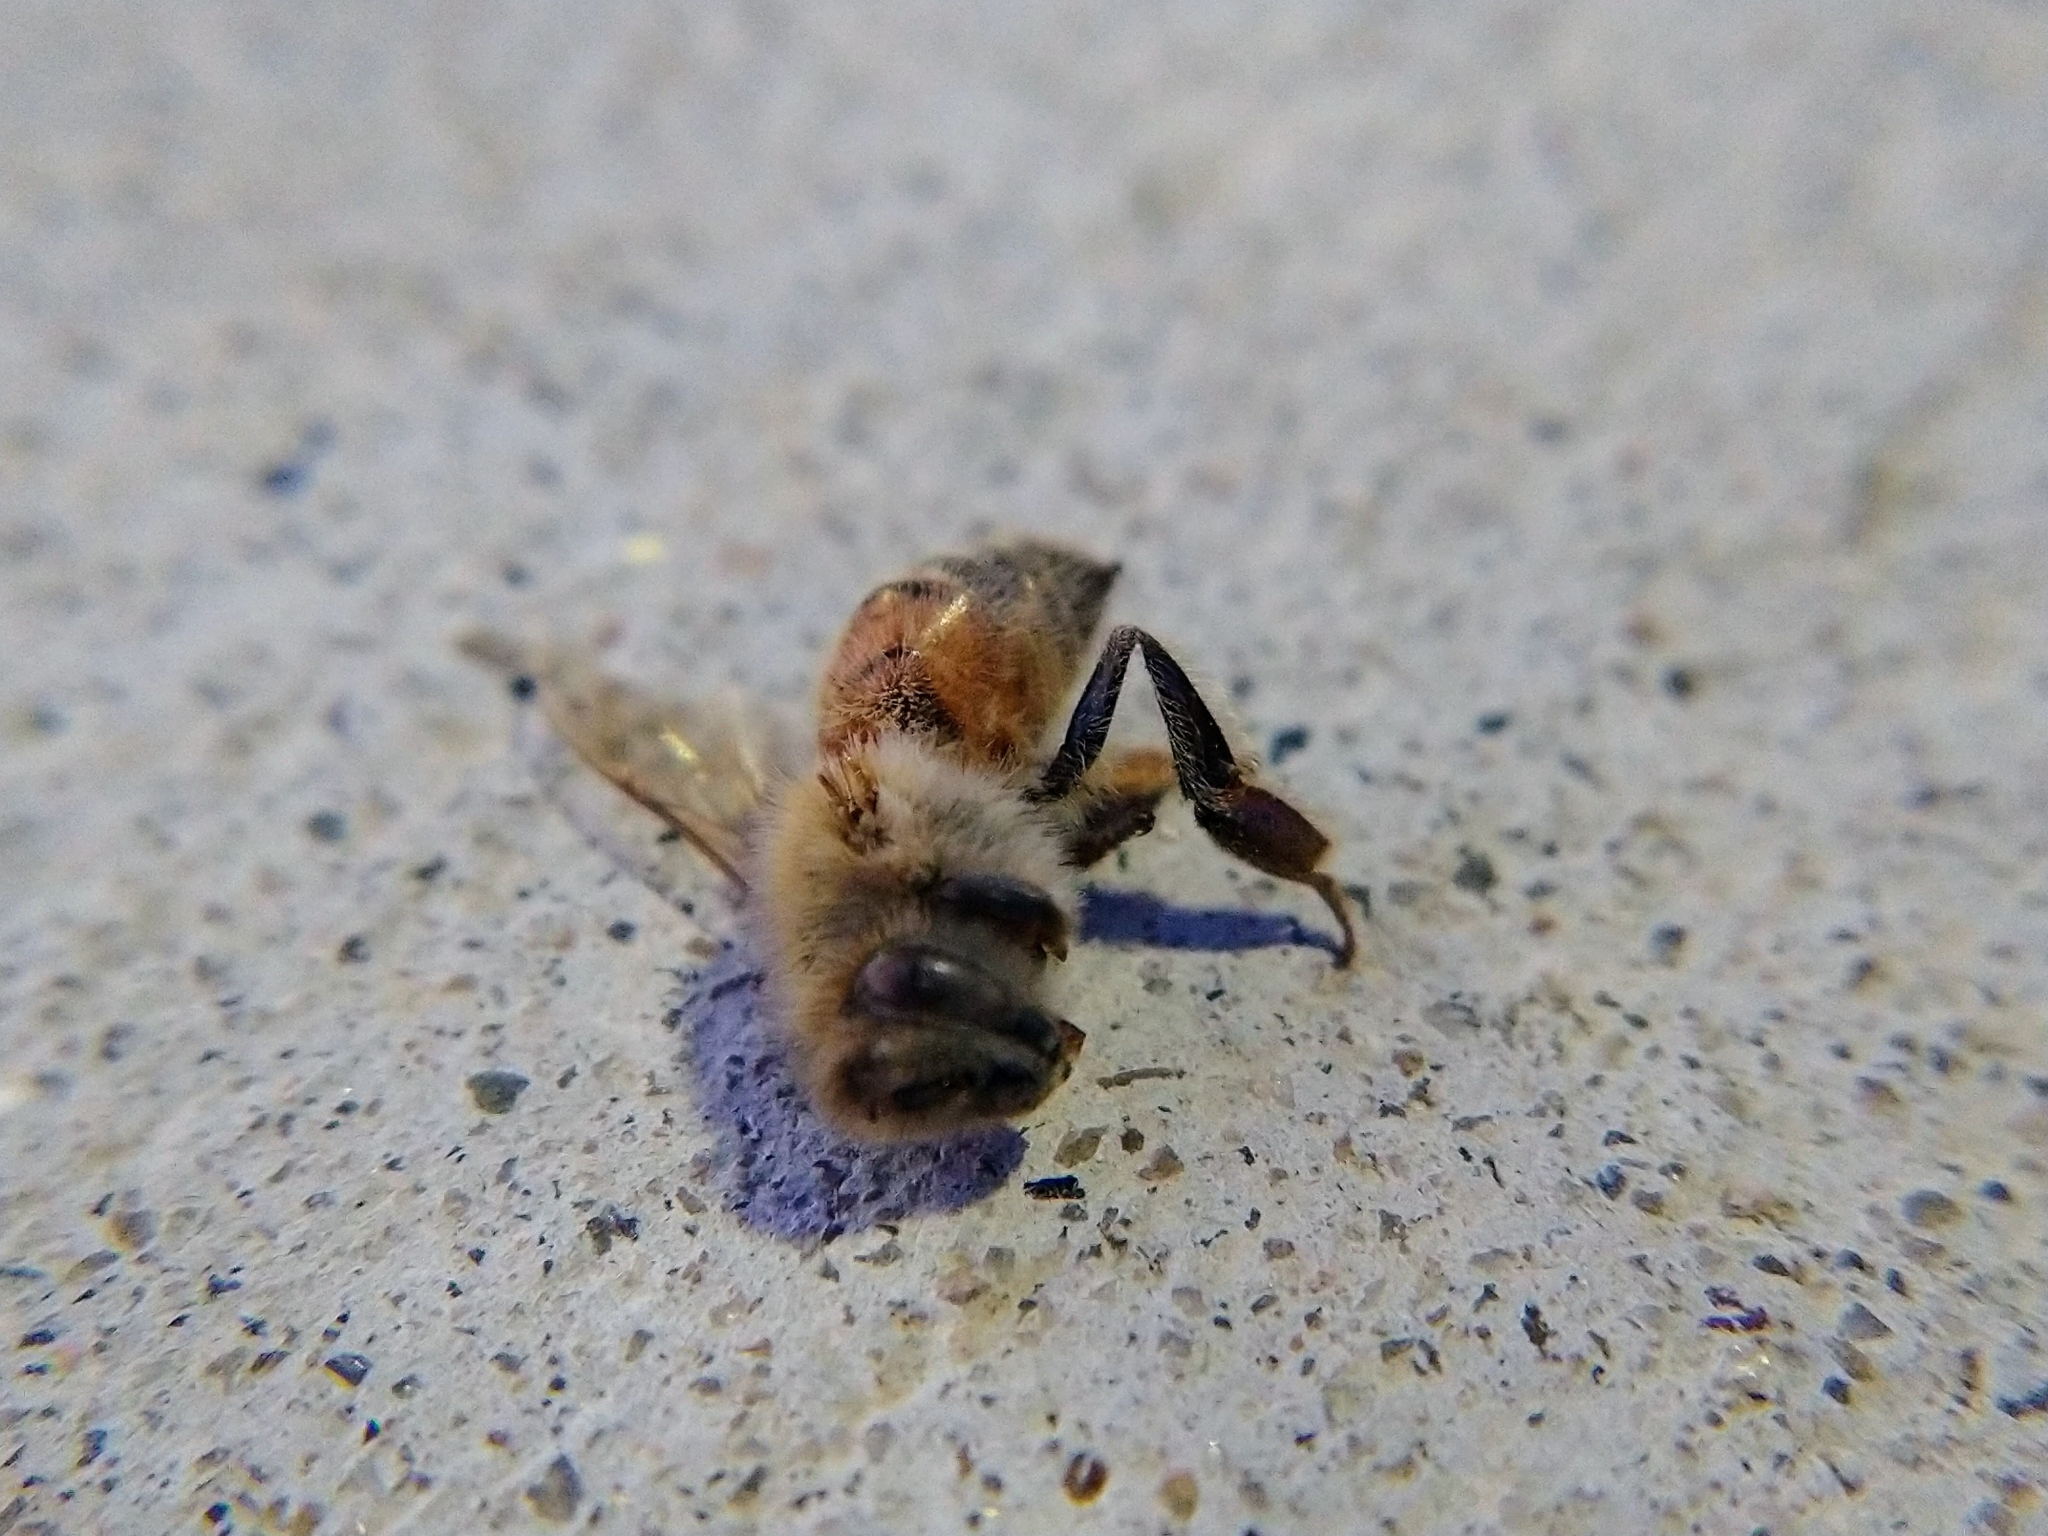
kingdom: Animalia
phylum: Arthropoda
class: Insecta
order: Hymenoptera
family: Apidae
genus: Apis
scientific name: Apis mellifera
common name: Honey bee
